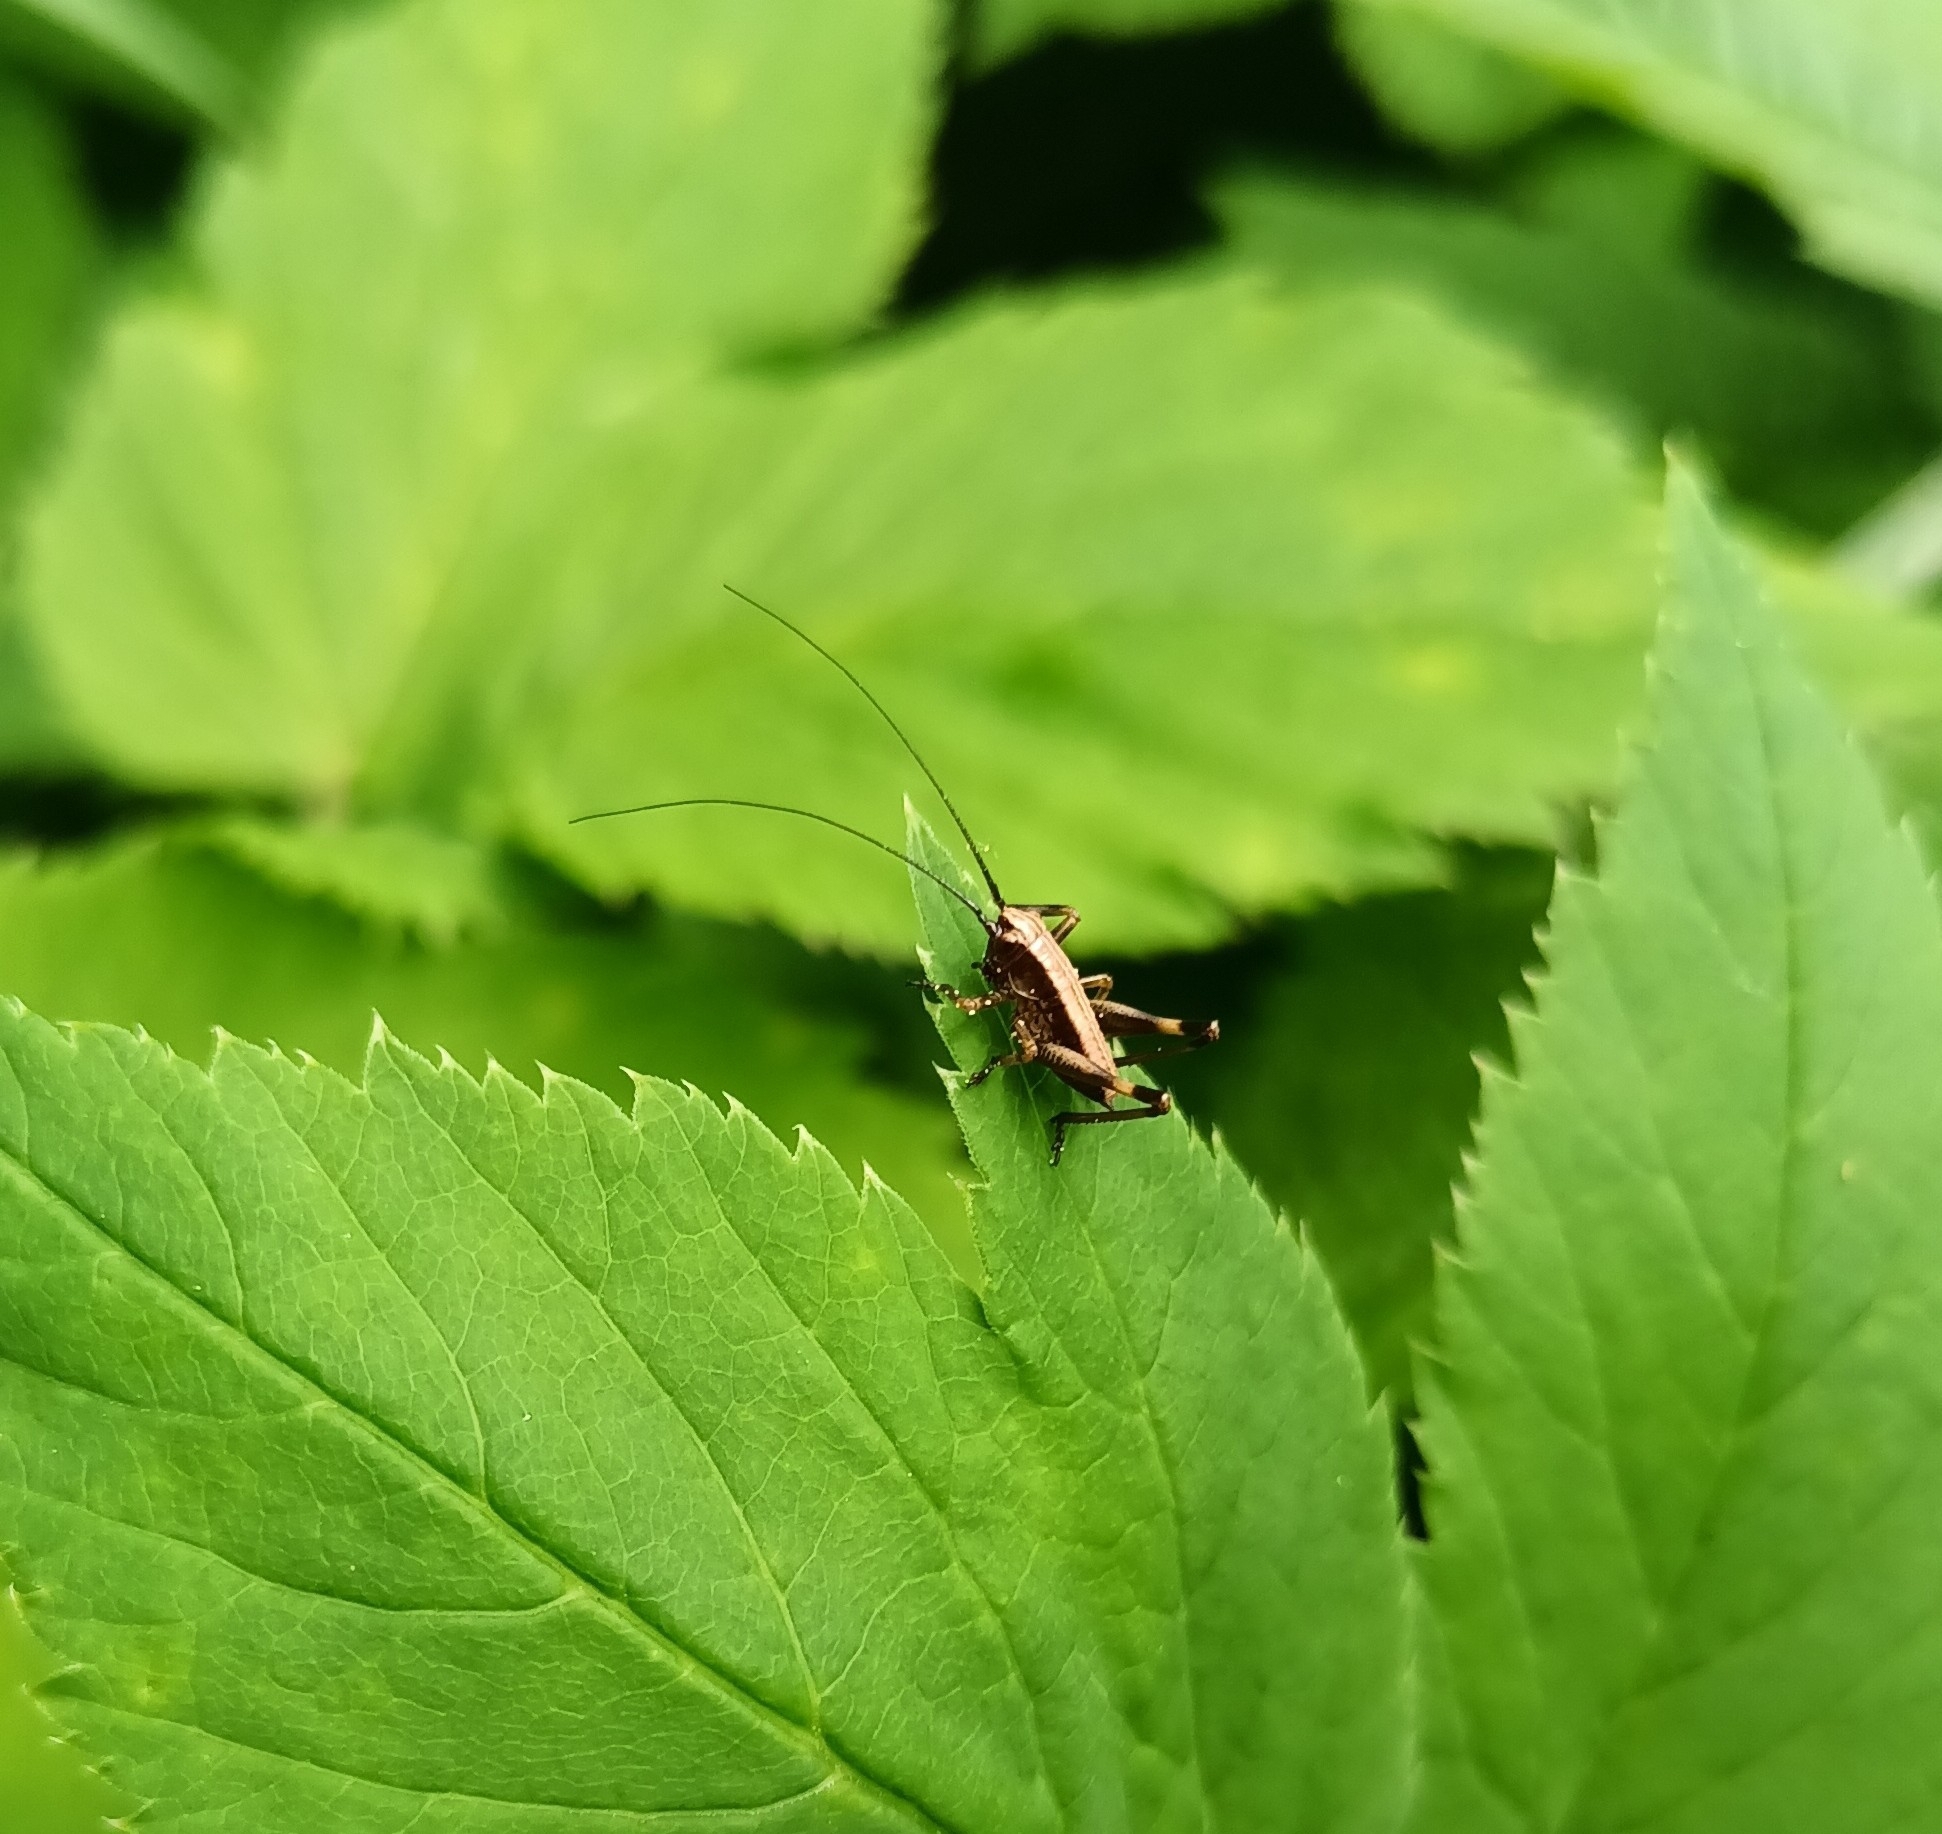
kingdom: Animalia
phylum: Arthropoda
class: Insecta
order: Orthoptera
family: Tettigoniidae
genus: Pholidoptera
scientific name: Pholidoptera griseoaptera
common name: Dark bush-cricket
